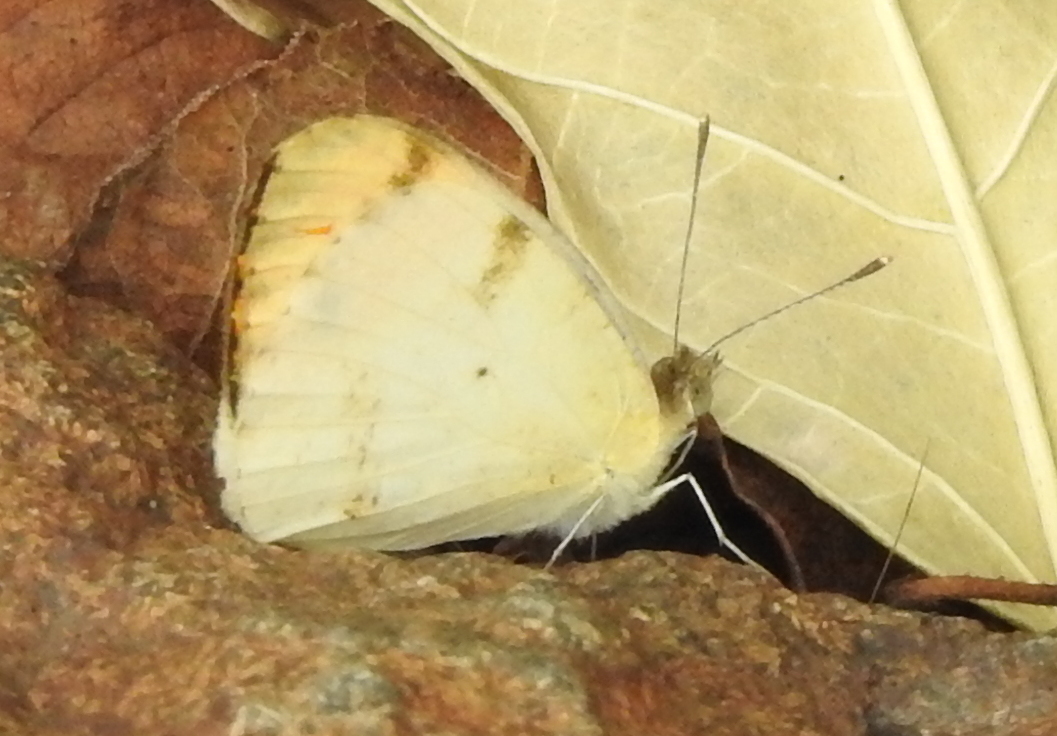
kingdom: Animalia
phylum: Arthropoda
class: Insecta
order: Lepidoptera
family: Pieridae
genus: Colotis
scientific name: Colotis aurora
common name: Plain orange-tip
